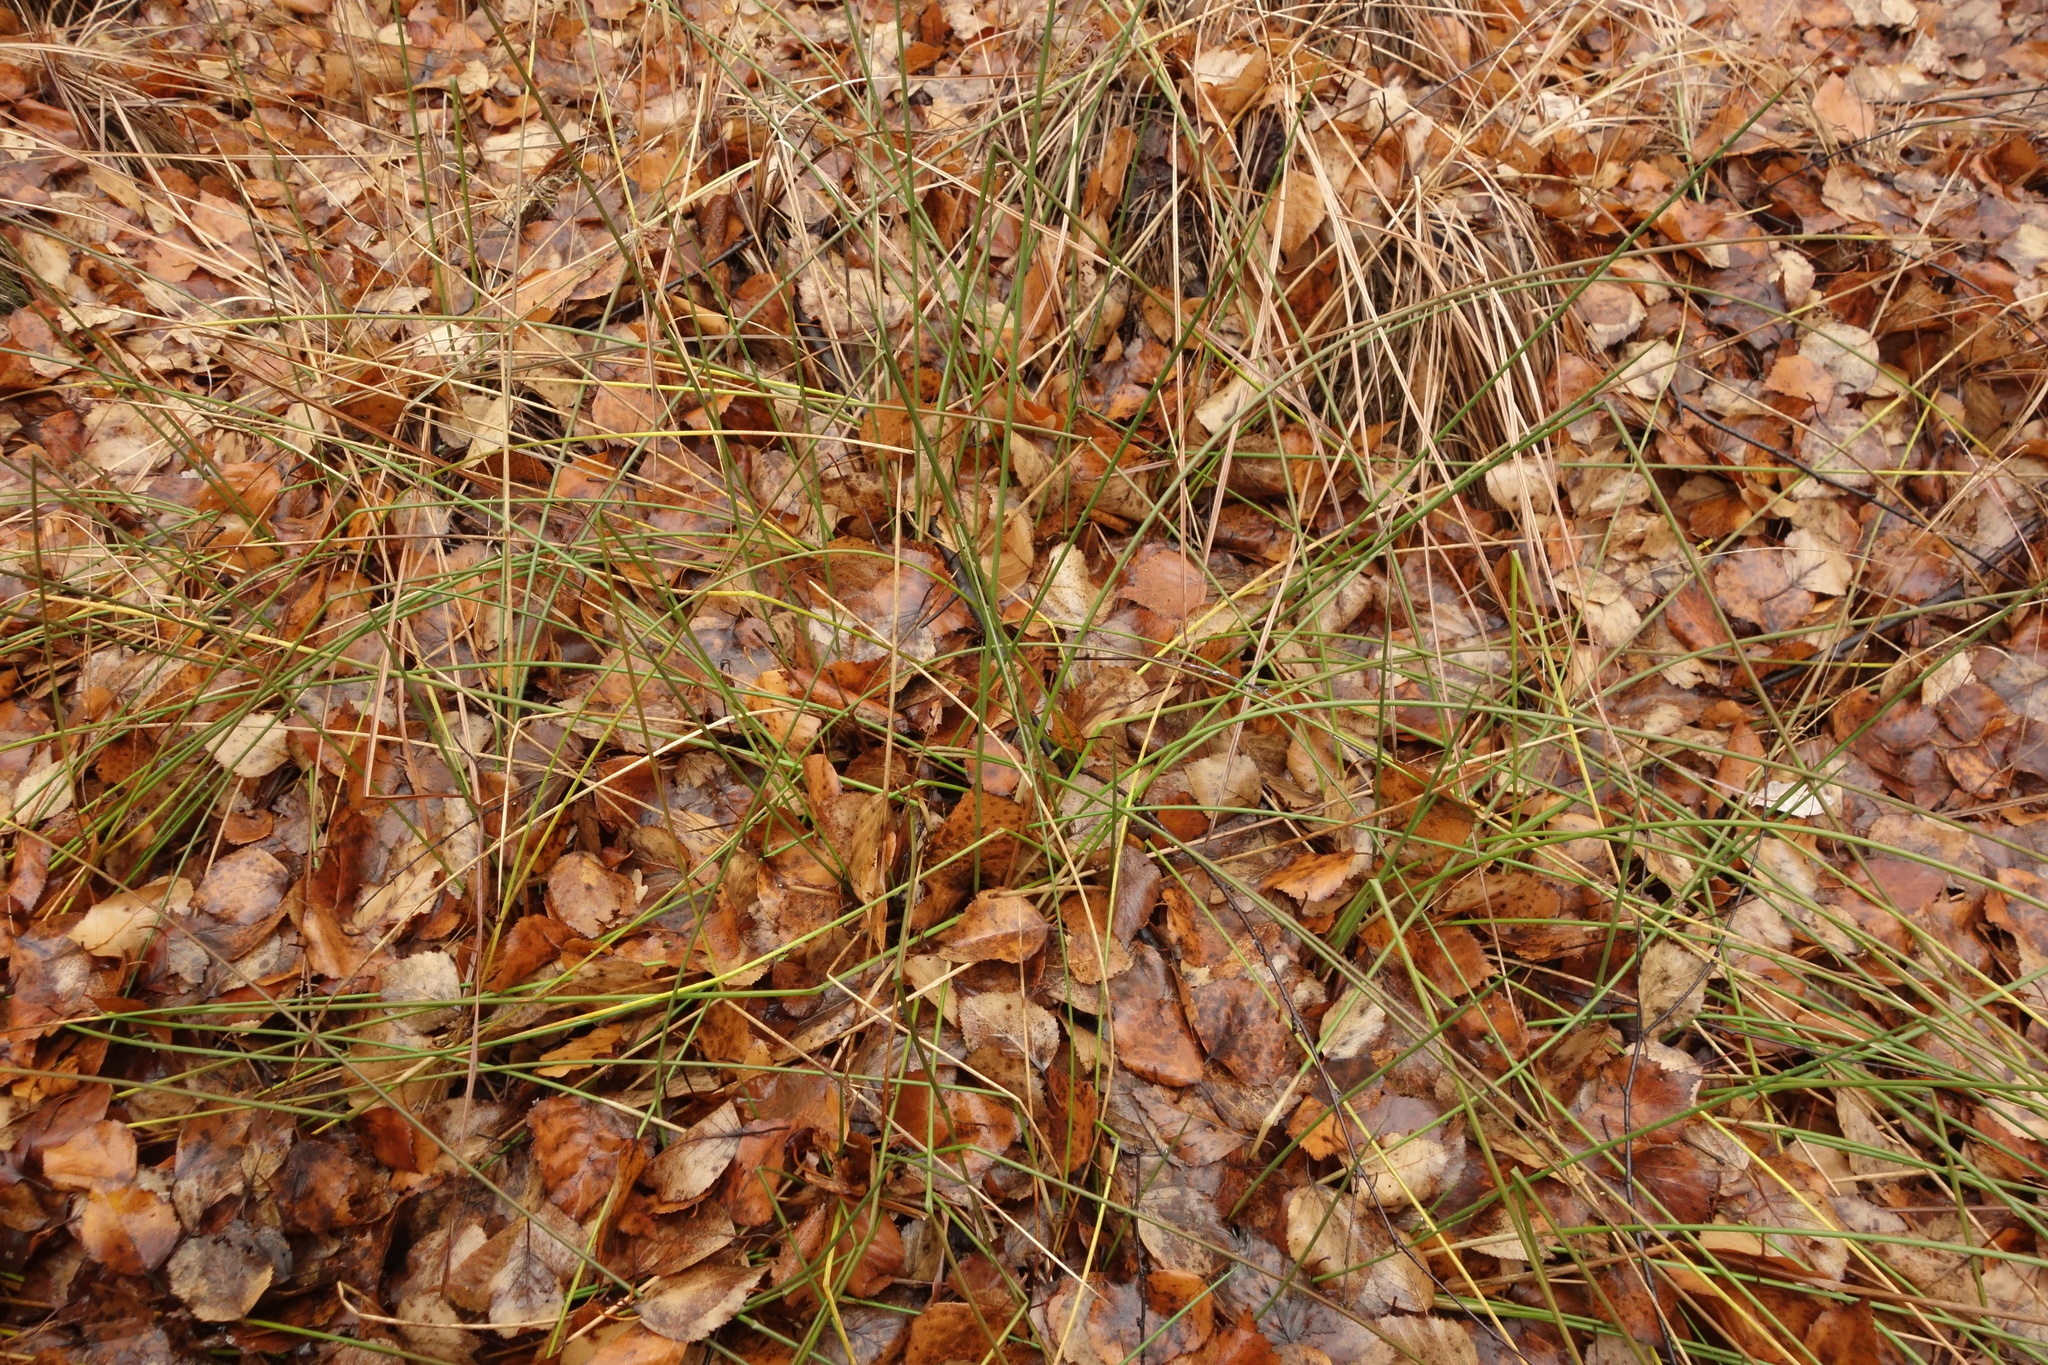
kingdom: Plantae
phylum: Tracheophyta
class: Liliopsida
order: Poales
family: Juncaceae
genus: Juncus
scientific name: Juncus effusus
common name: Soft rush
